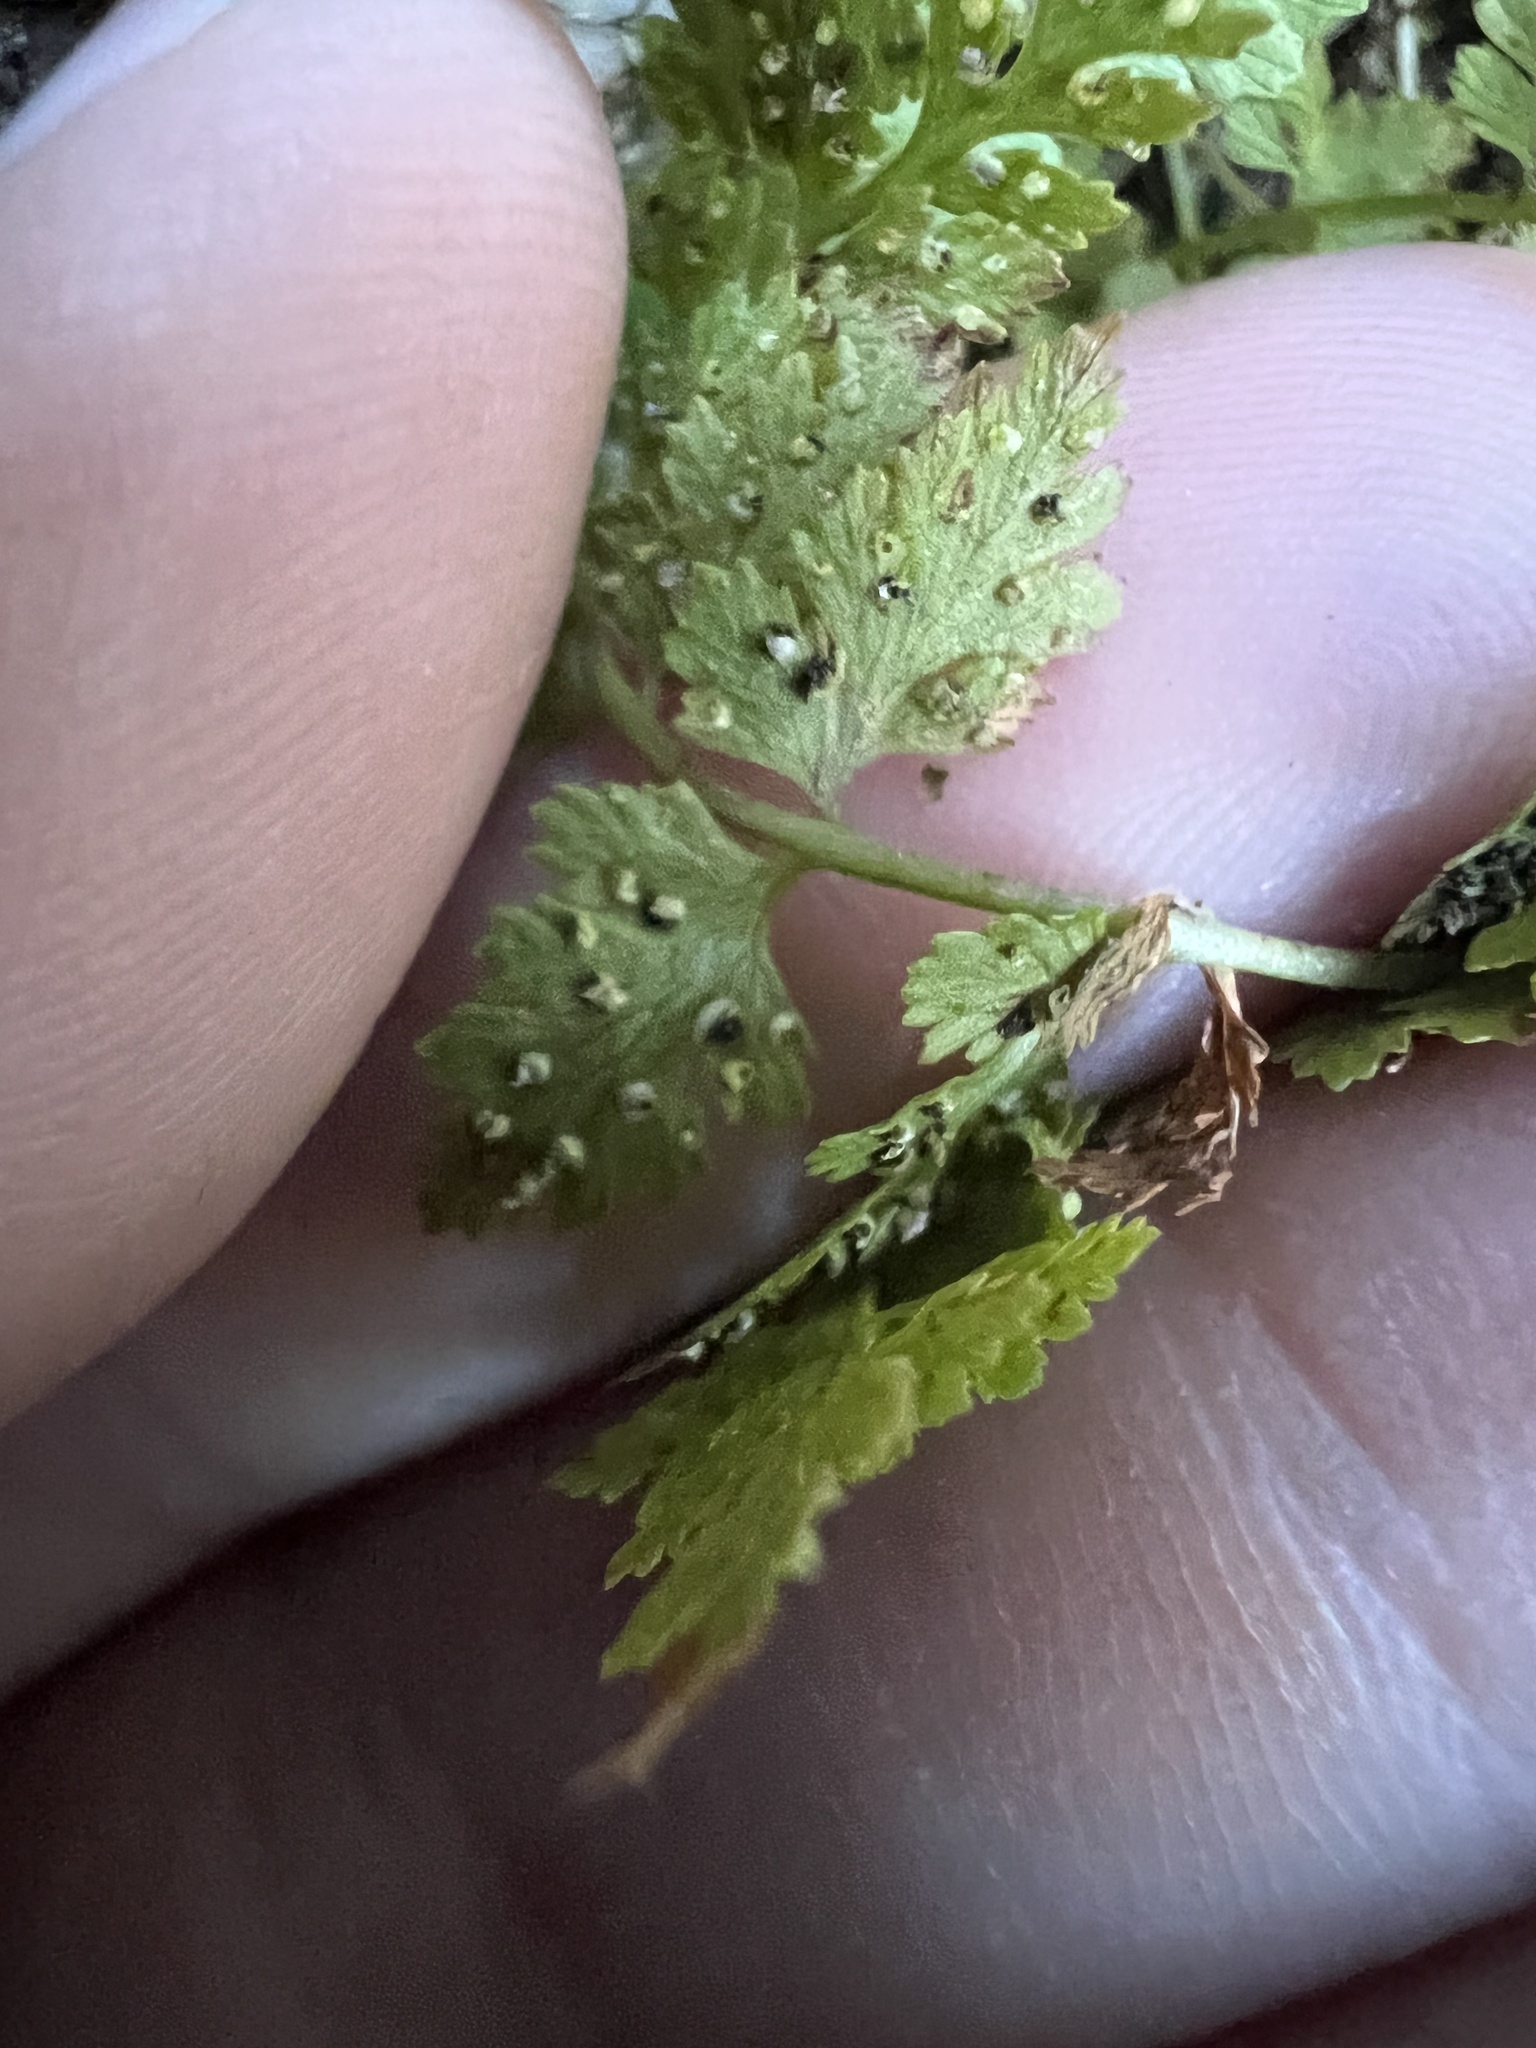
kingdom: Plantae
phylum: Tracheophyta
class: Polypodiopsida
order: Polypodiales
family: Cystopteridaceae
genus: Cystopteris
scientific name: Cystopteris fragilis
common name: Brittle bladder fern
